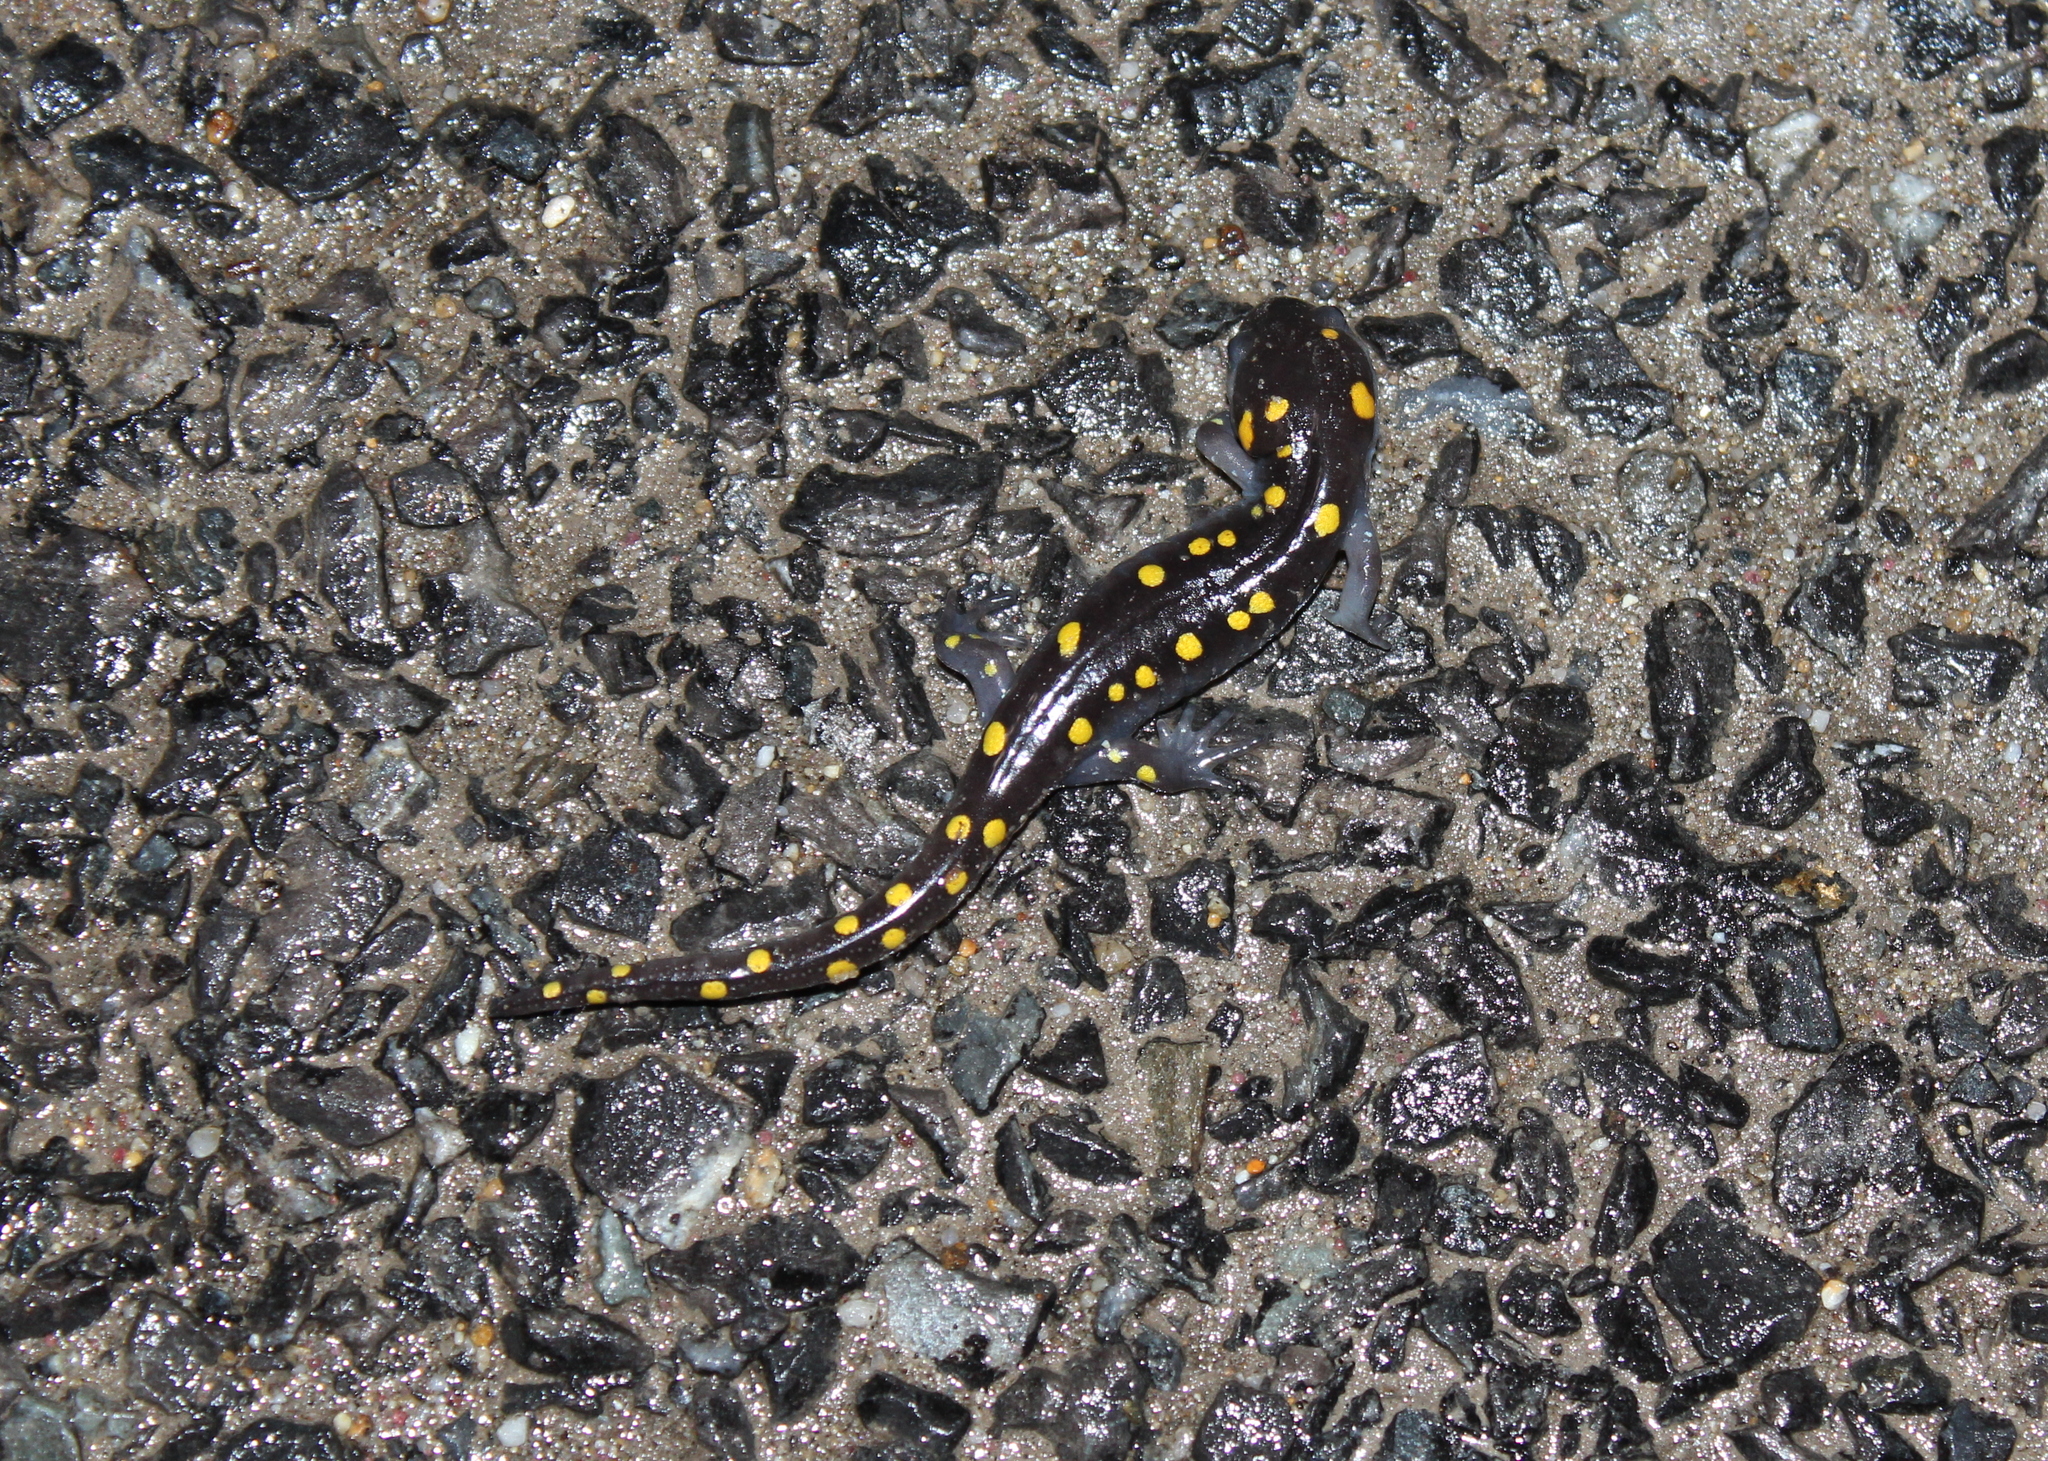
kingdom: Animalia
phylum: Chordata
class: Amphibia
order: Caudata
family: Ambystomatidae
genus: Ambystoma
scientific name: Ambystoma maculatum
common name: Spotted salamander
